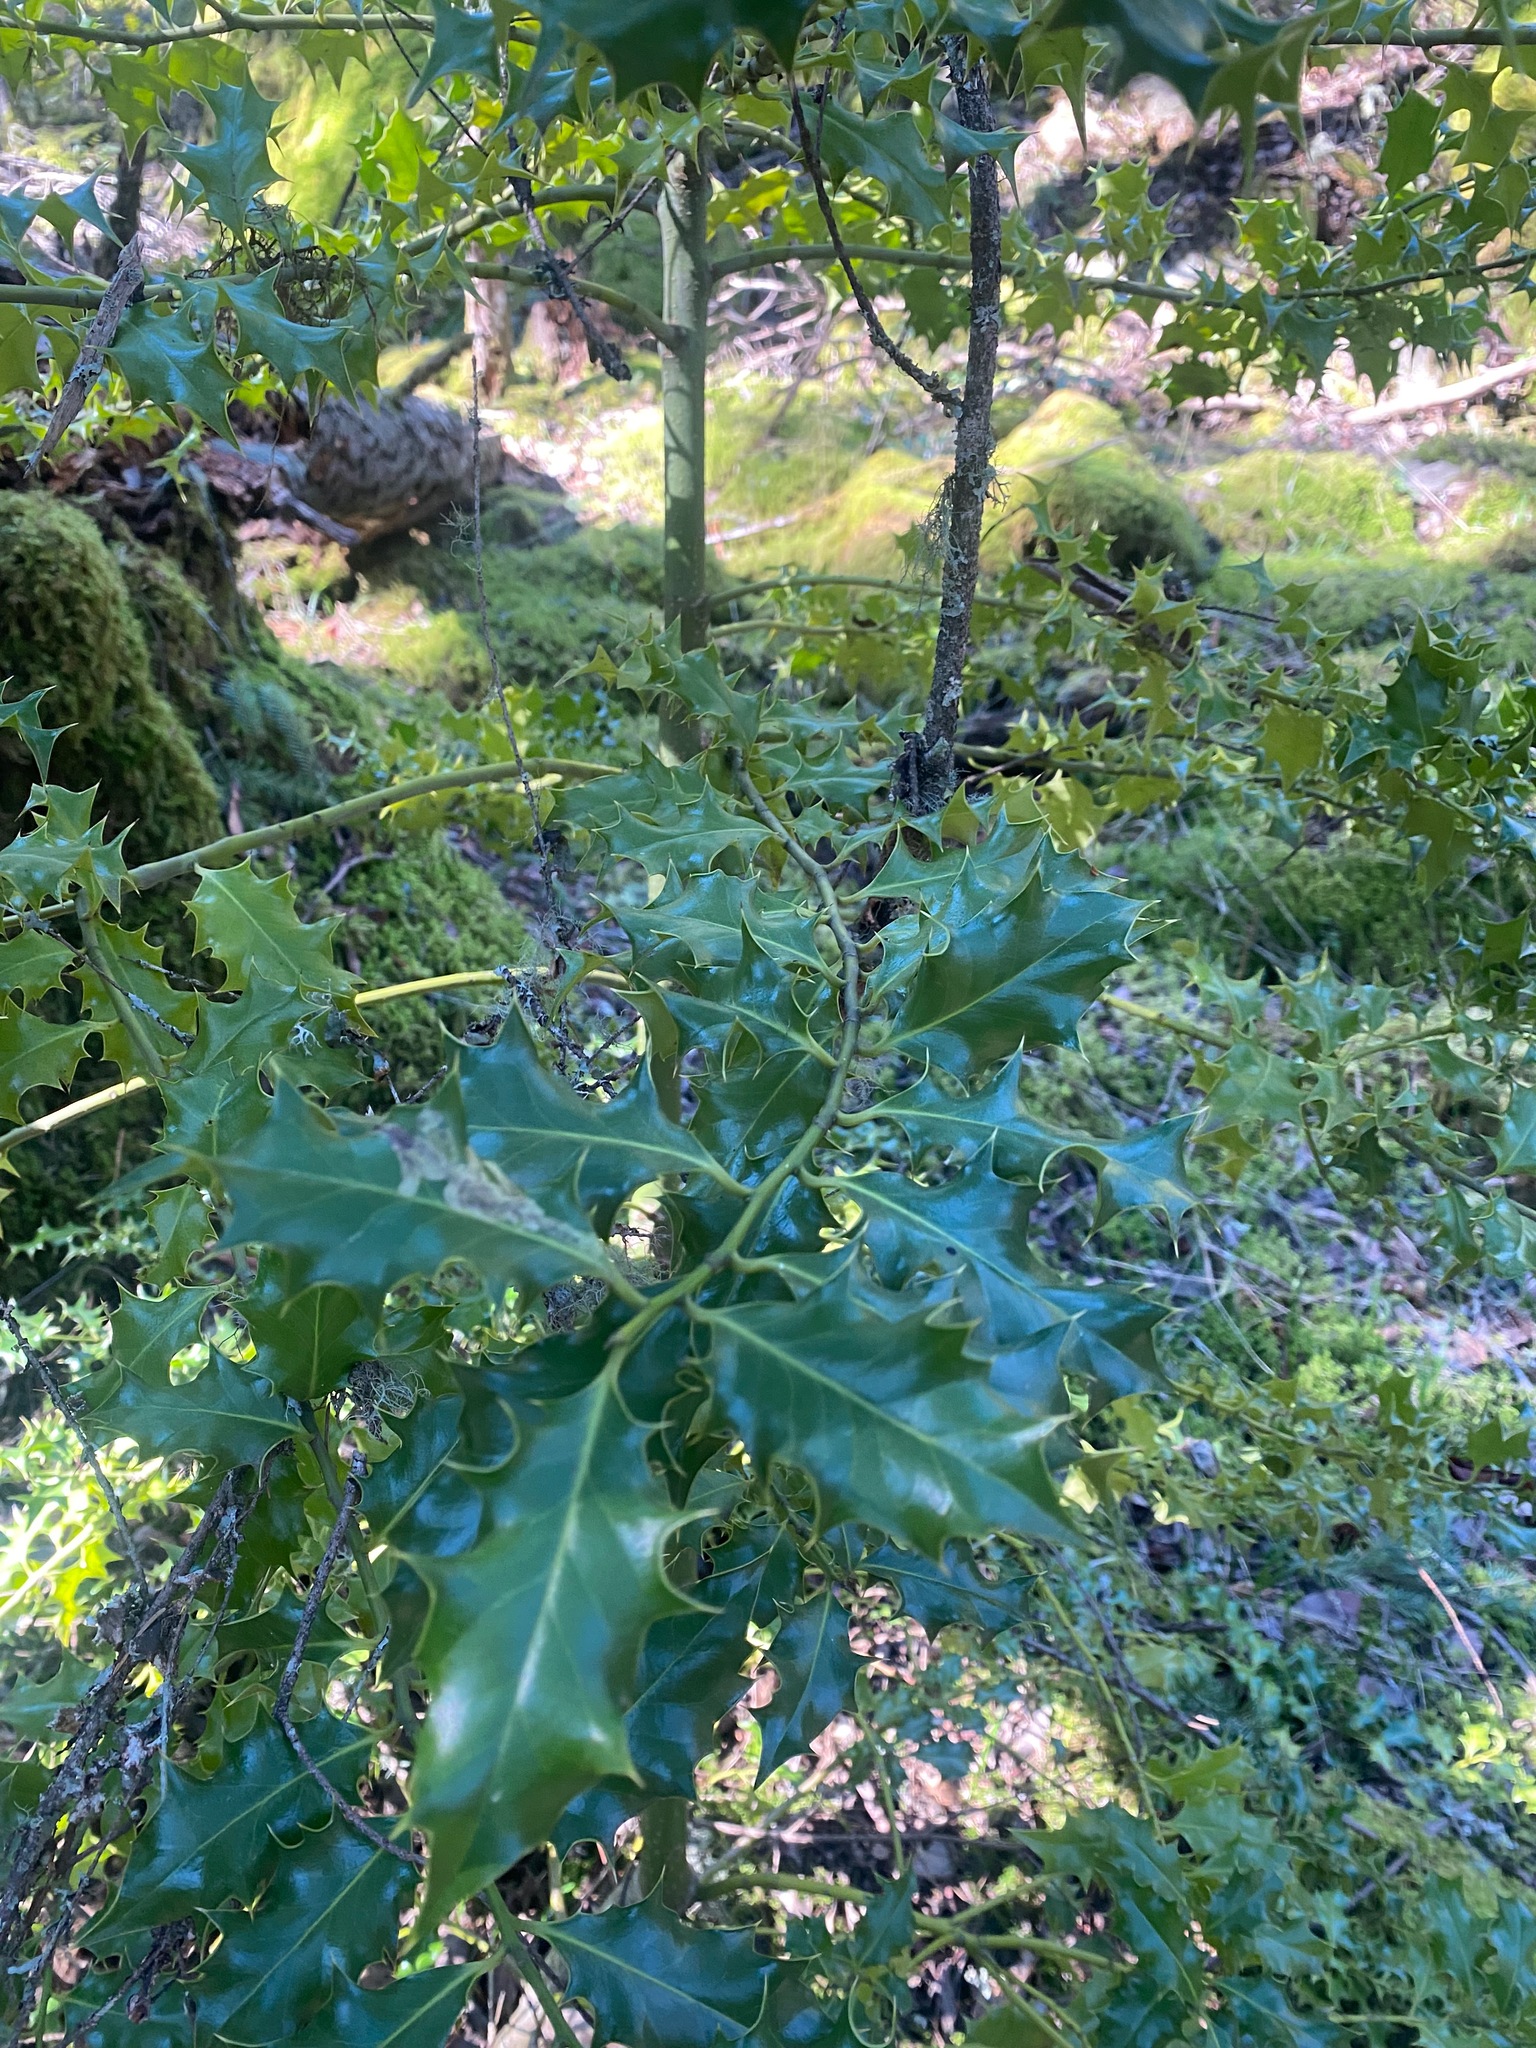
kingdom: Plantae
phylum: Tracheophyta
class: Magnoliopsida
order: Aquifoliales
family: Aquifoliaceae
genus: Ilex
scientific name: Ilex aquifolium
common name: English holly
